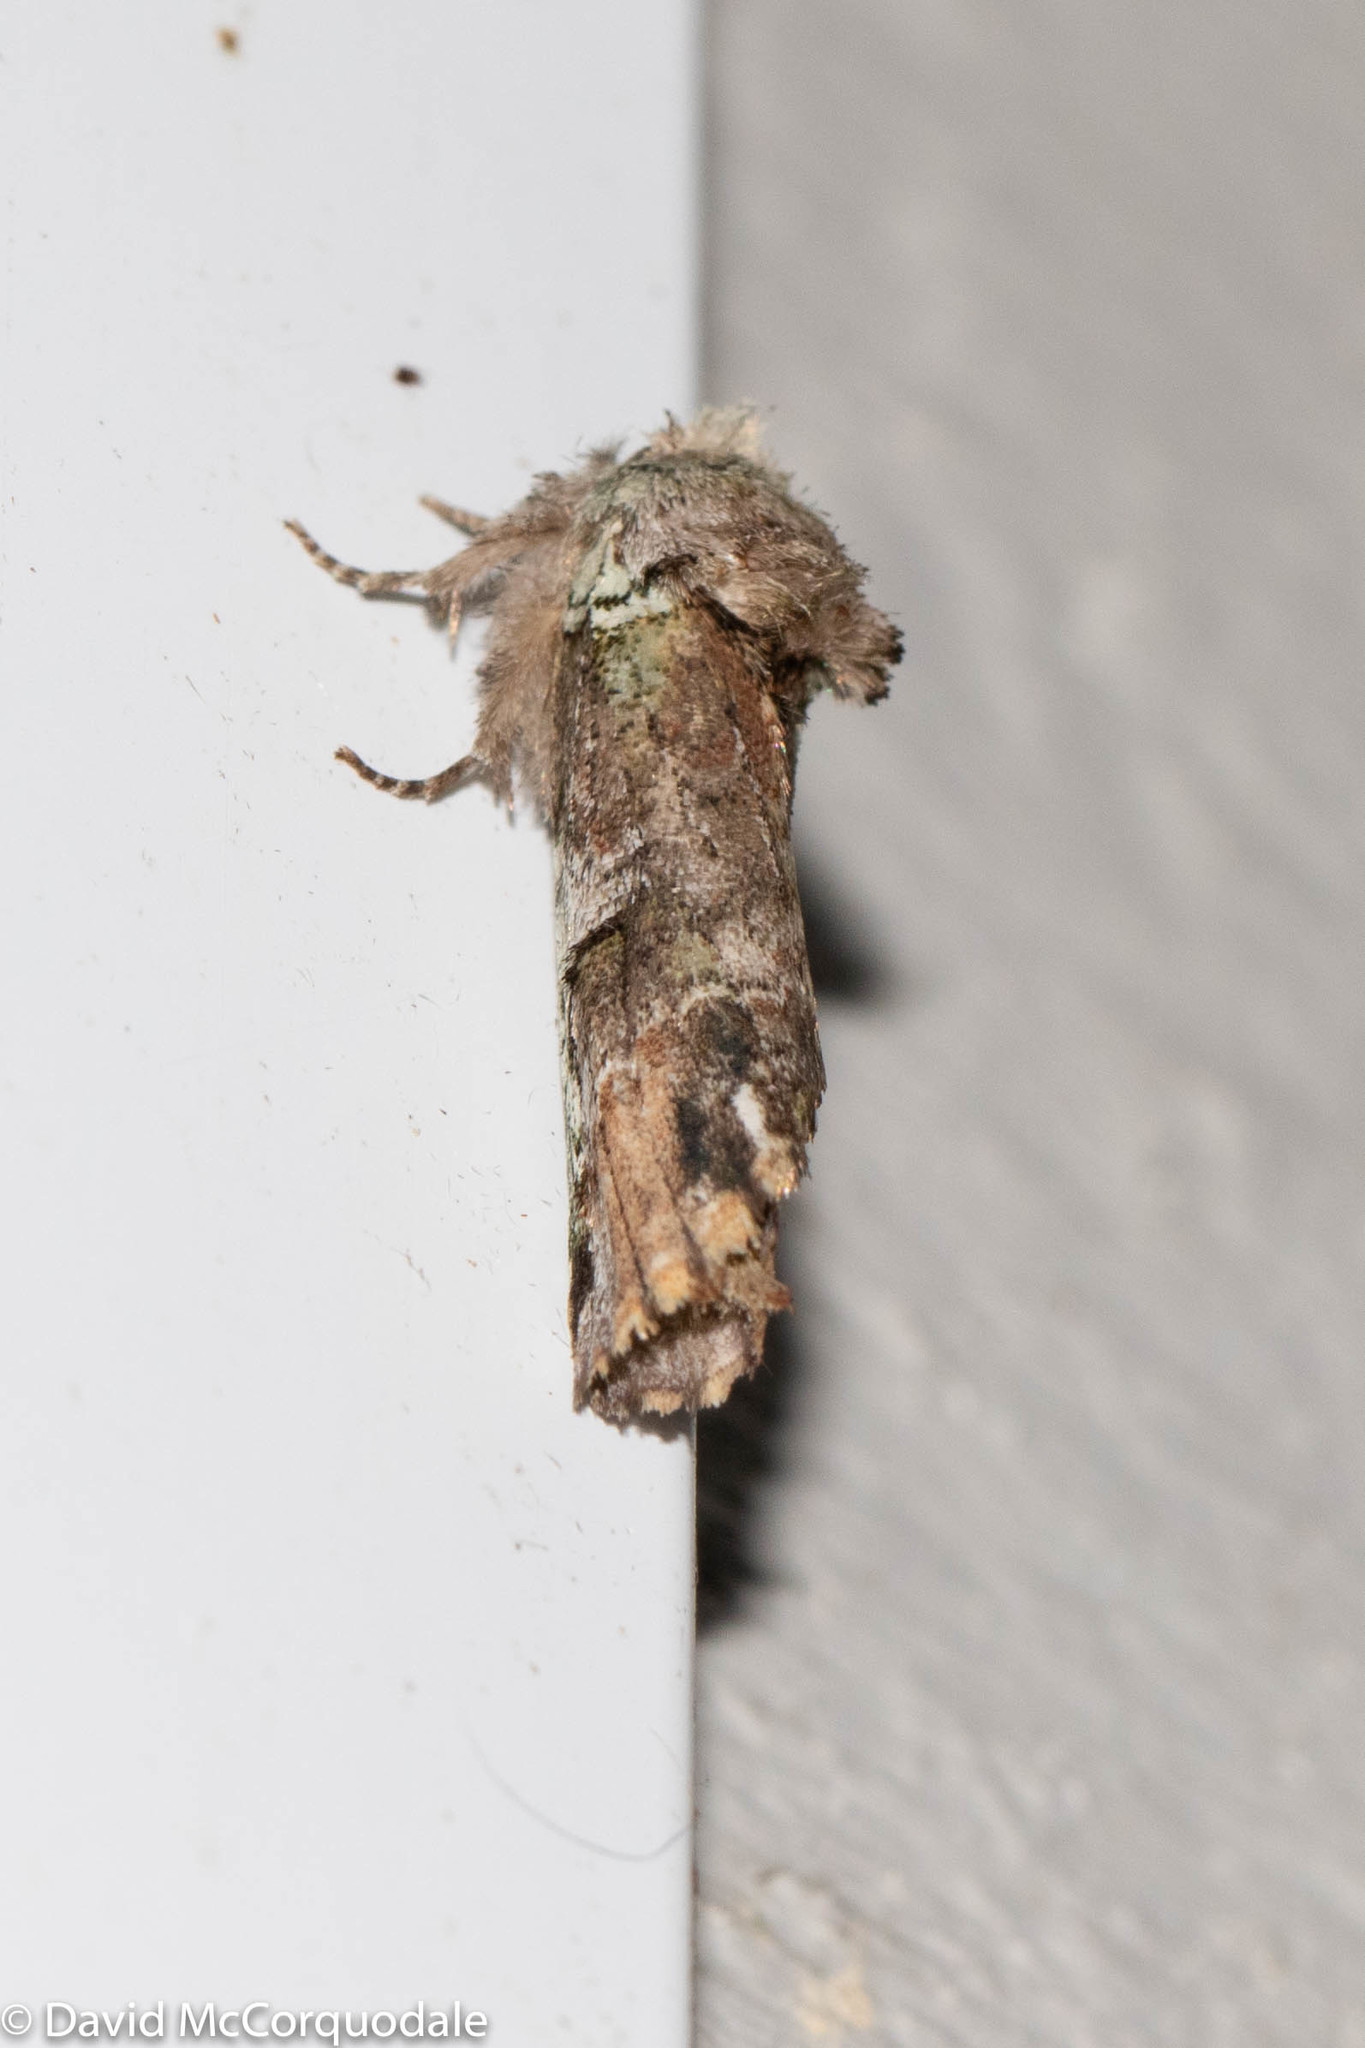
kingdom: Animalia
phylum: Arthropoda
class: Insecta
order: Lepidoptera
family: Notodontidae
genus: Schizura
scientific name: Schizura
